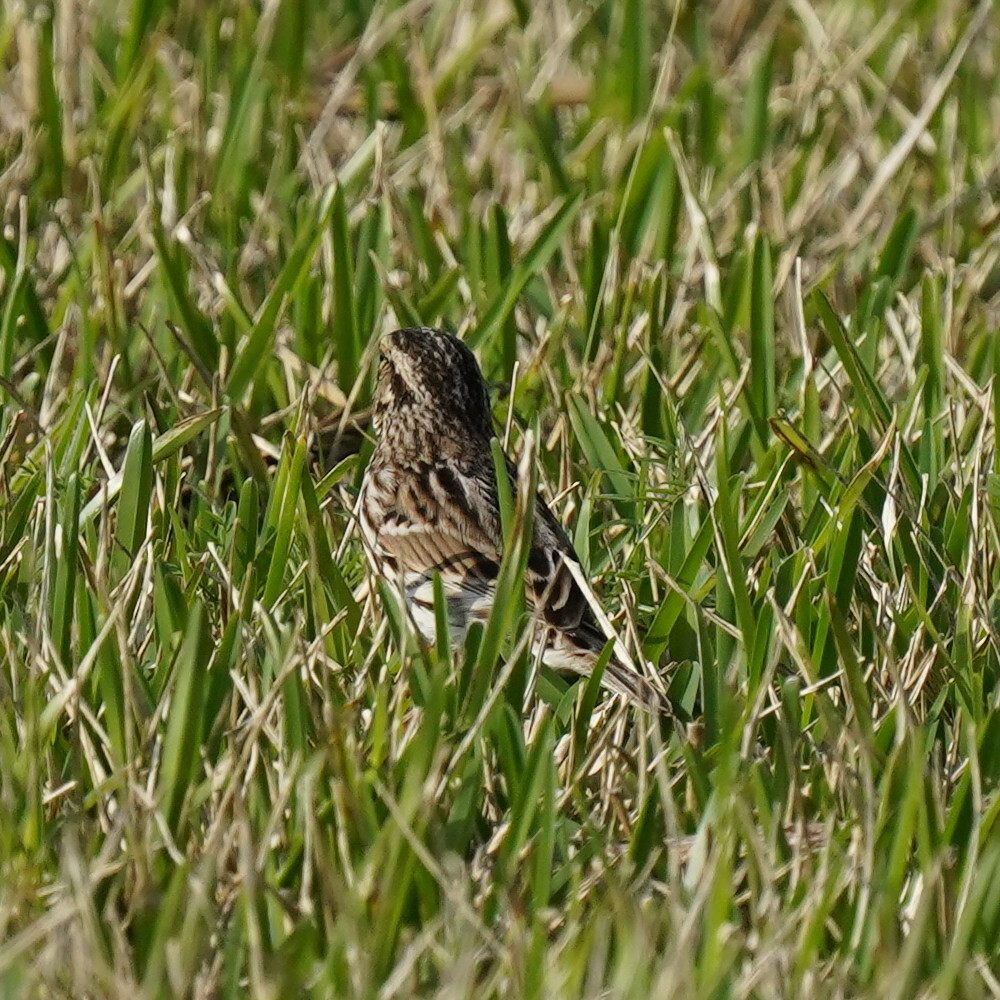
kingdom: Animalia
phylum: Chordata
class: Aves
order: Passeriformes
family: Passerellidae
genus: Passerculus
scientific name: Passerculus sandwichensis
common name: Savannah sparrow
